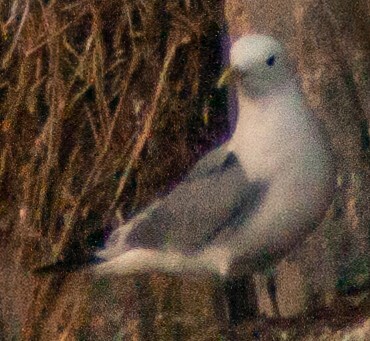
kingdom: Animalia
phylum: Chordata
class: Aves
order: Charadriiformes
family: Laridae
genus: Rissa
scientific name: Rissa tridactyla
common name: Black-legged kittiwake
